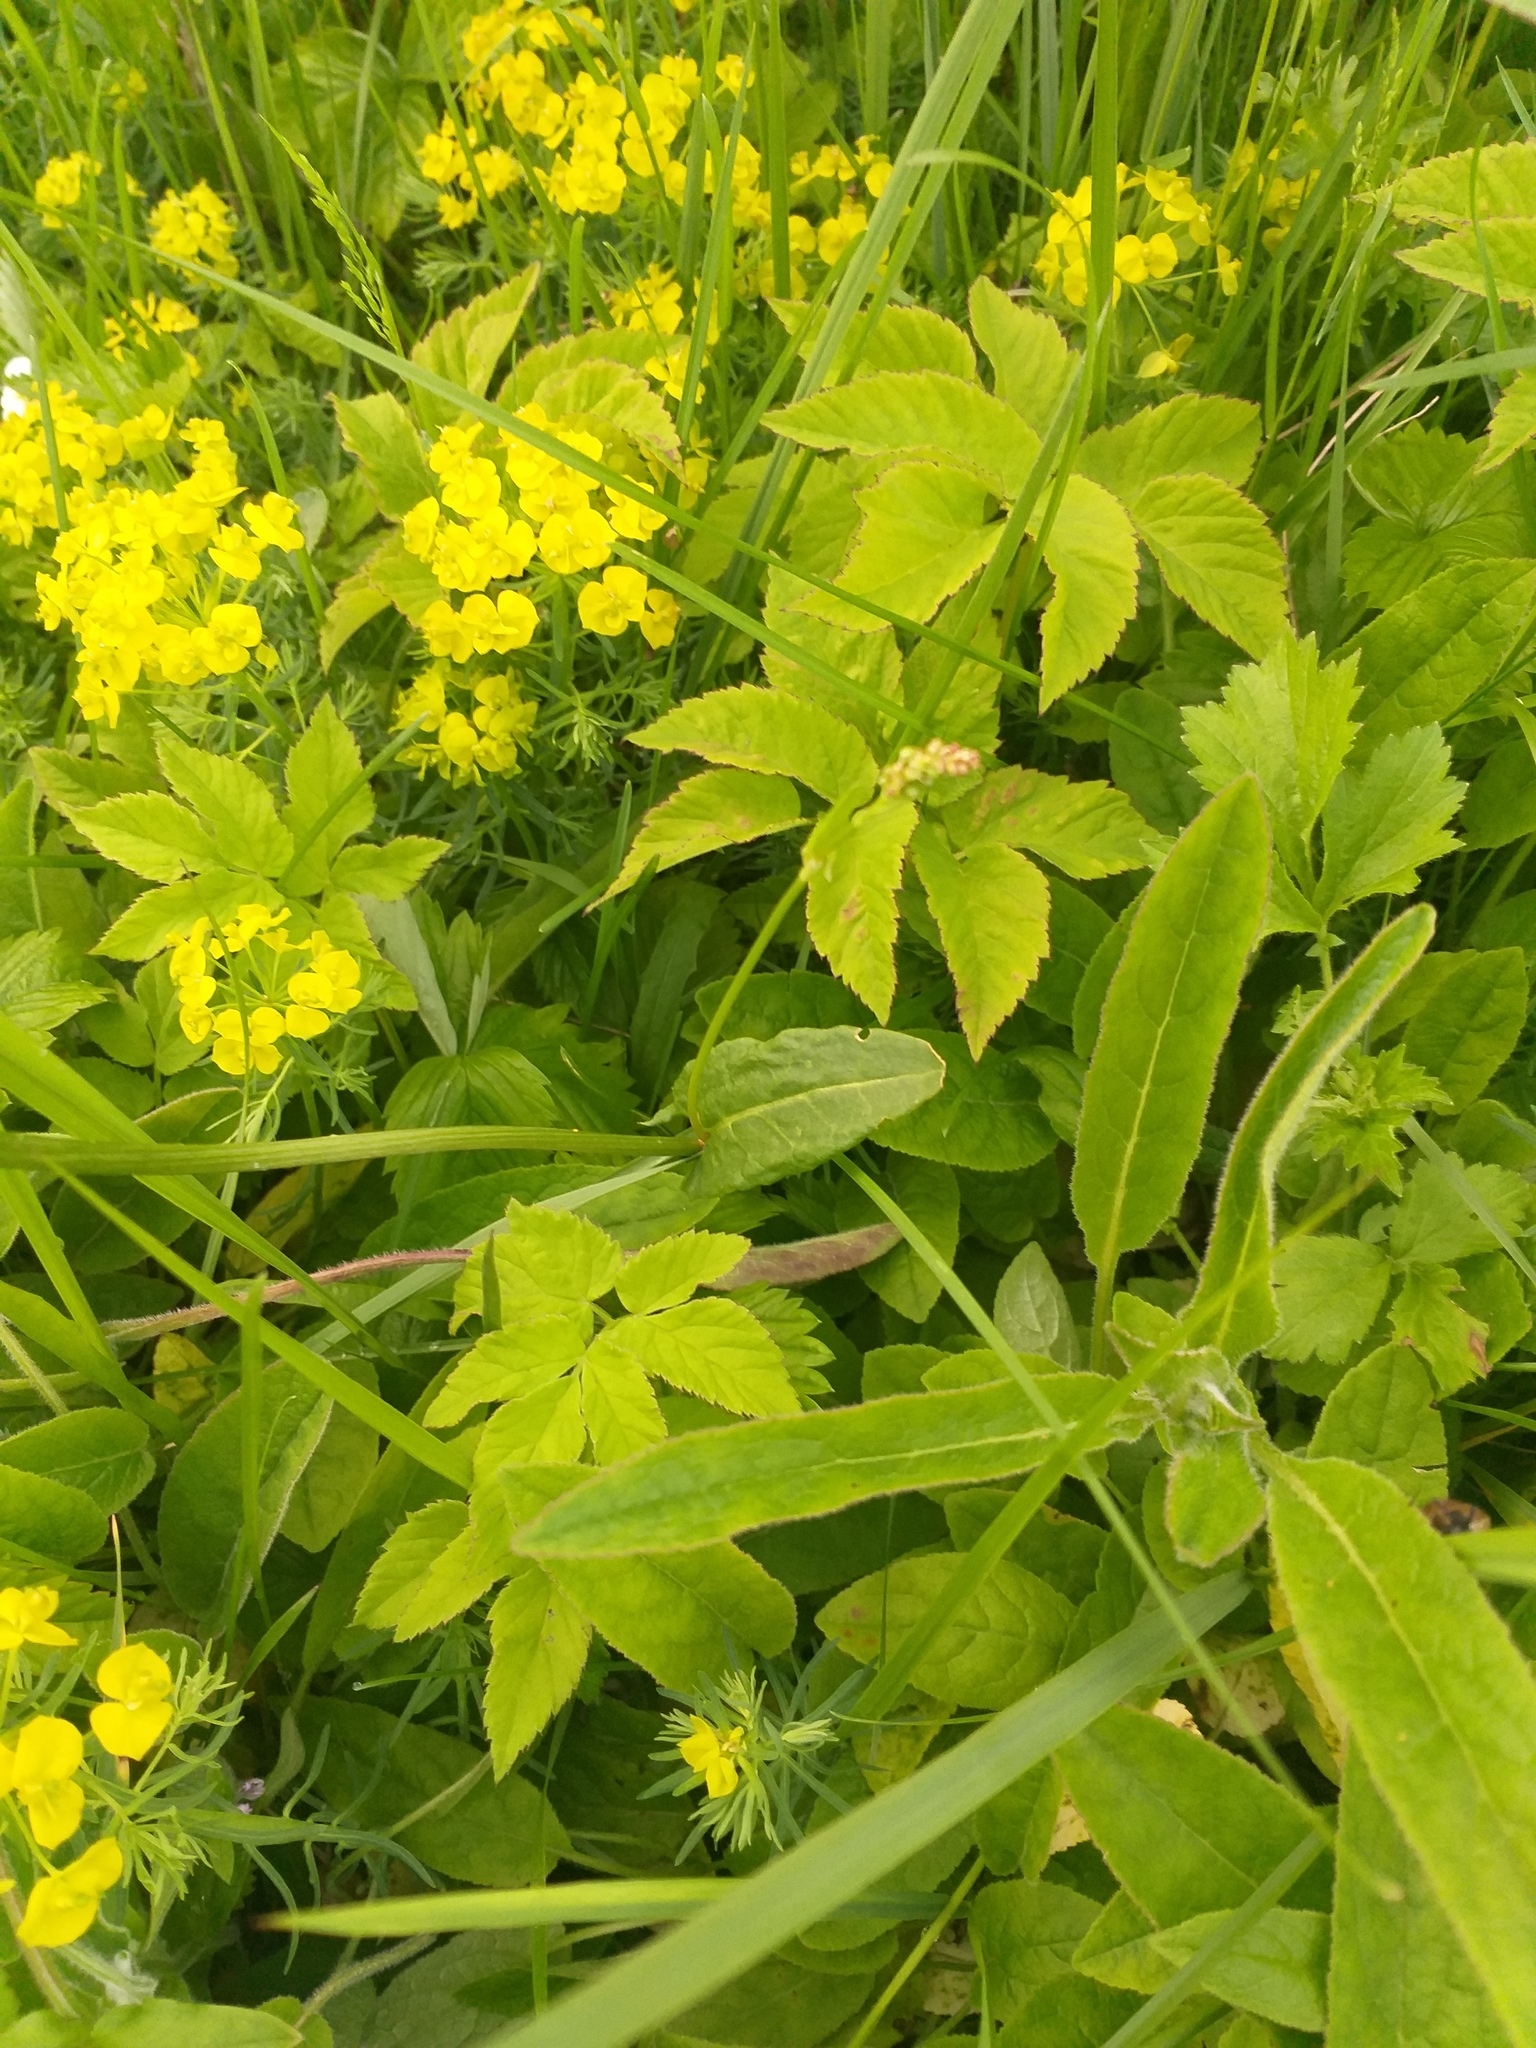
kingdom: Plantae
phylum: Tracheophyta
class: Magnoliopsida
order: Caryophyllales
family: Polygonaceae
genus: Rumex
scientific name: Rumex acetosa
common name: Garden sorrel
